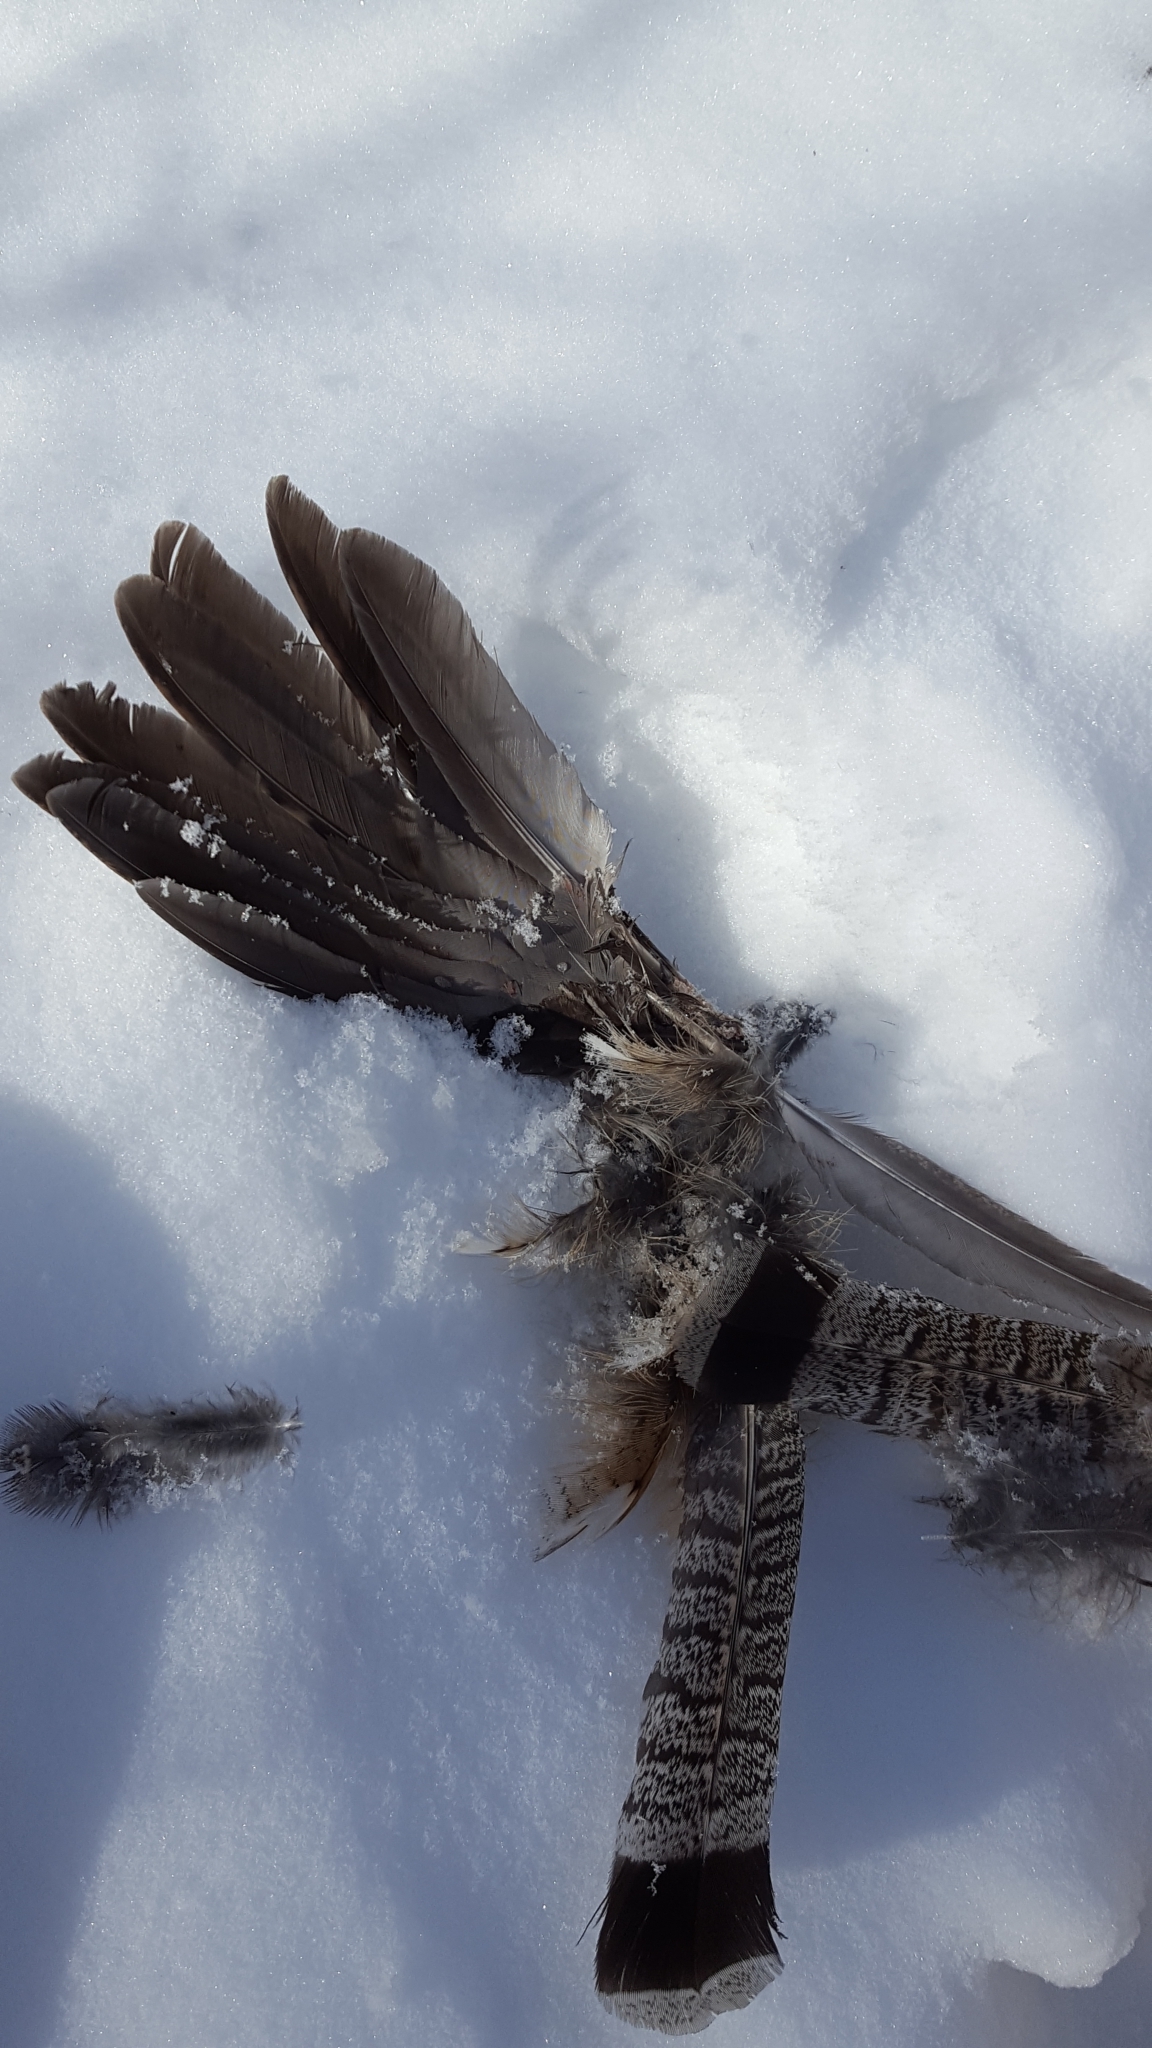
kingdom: Animalia
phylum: Chordata
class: Aves
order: Galliformes
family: Phasianidae
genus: Bonasa
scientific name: Bonasa umbellus
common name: Ruffed grouse
